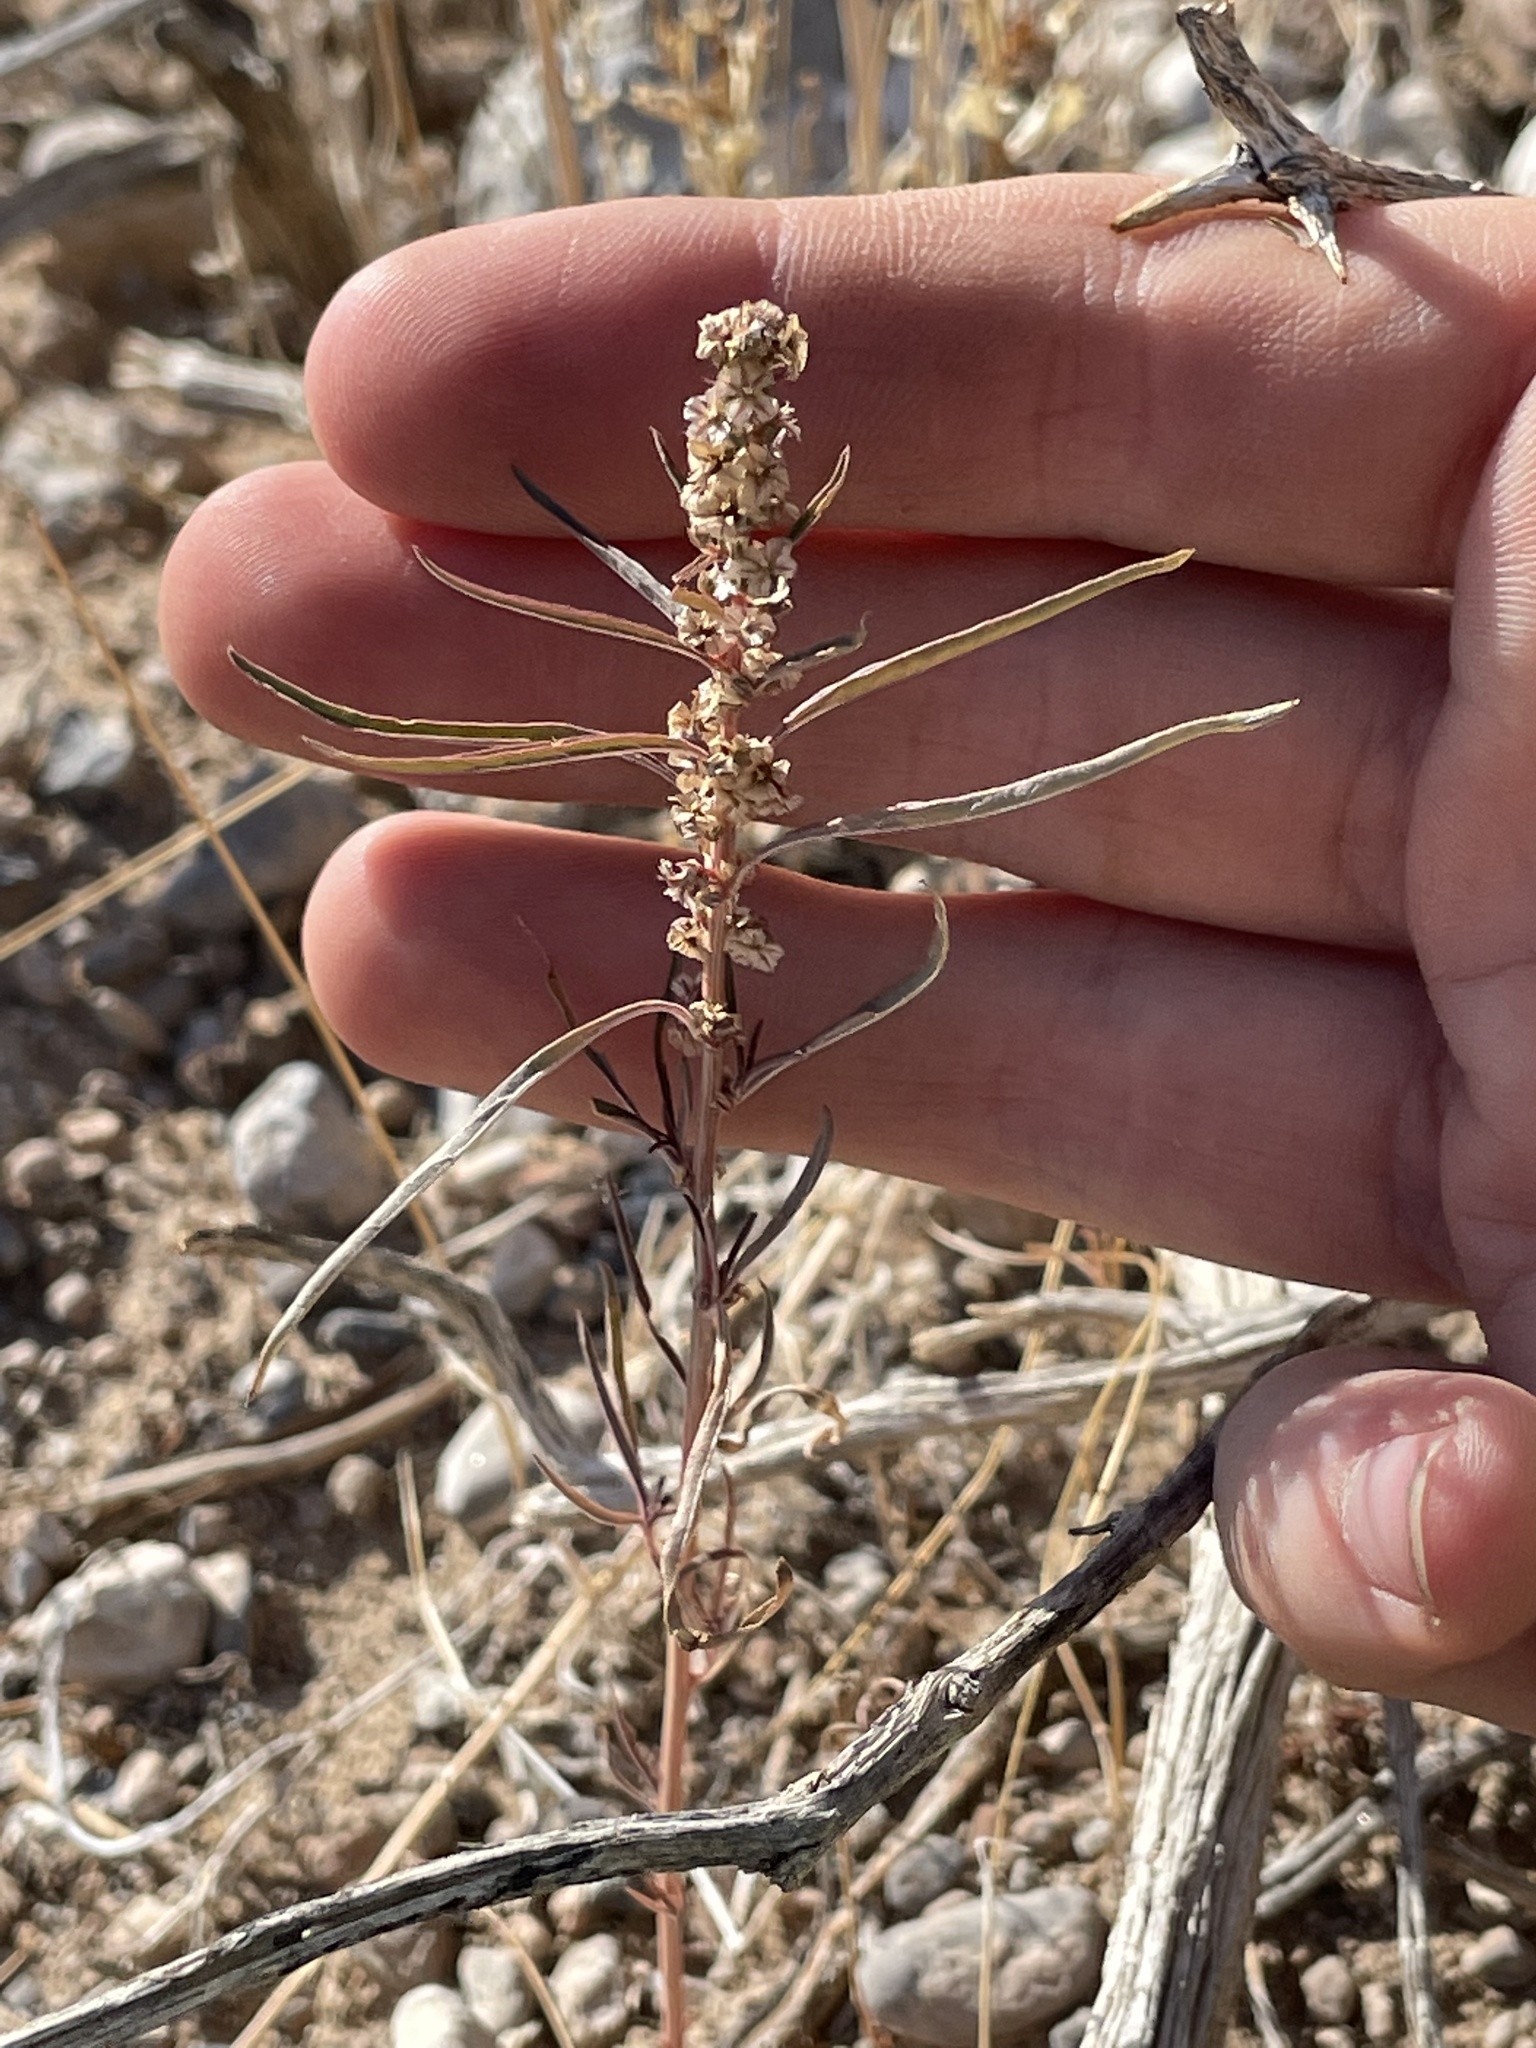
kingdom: Plantae
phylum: Tracheophyta
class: Magnoliopsida
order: Caryophyllales
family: Amaranthaceae
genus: Amaranthus
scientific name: Amaranthus fimbriatus
